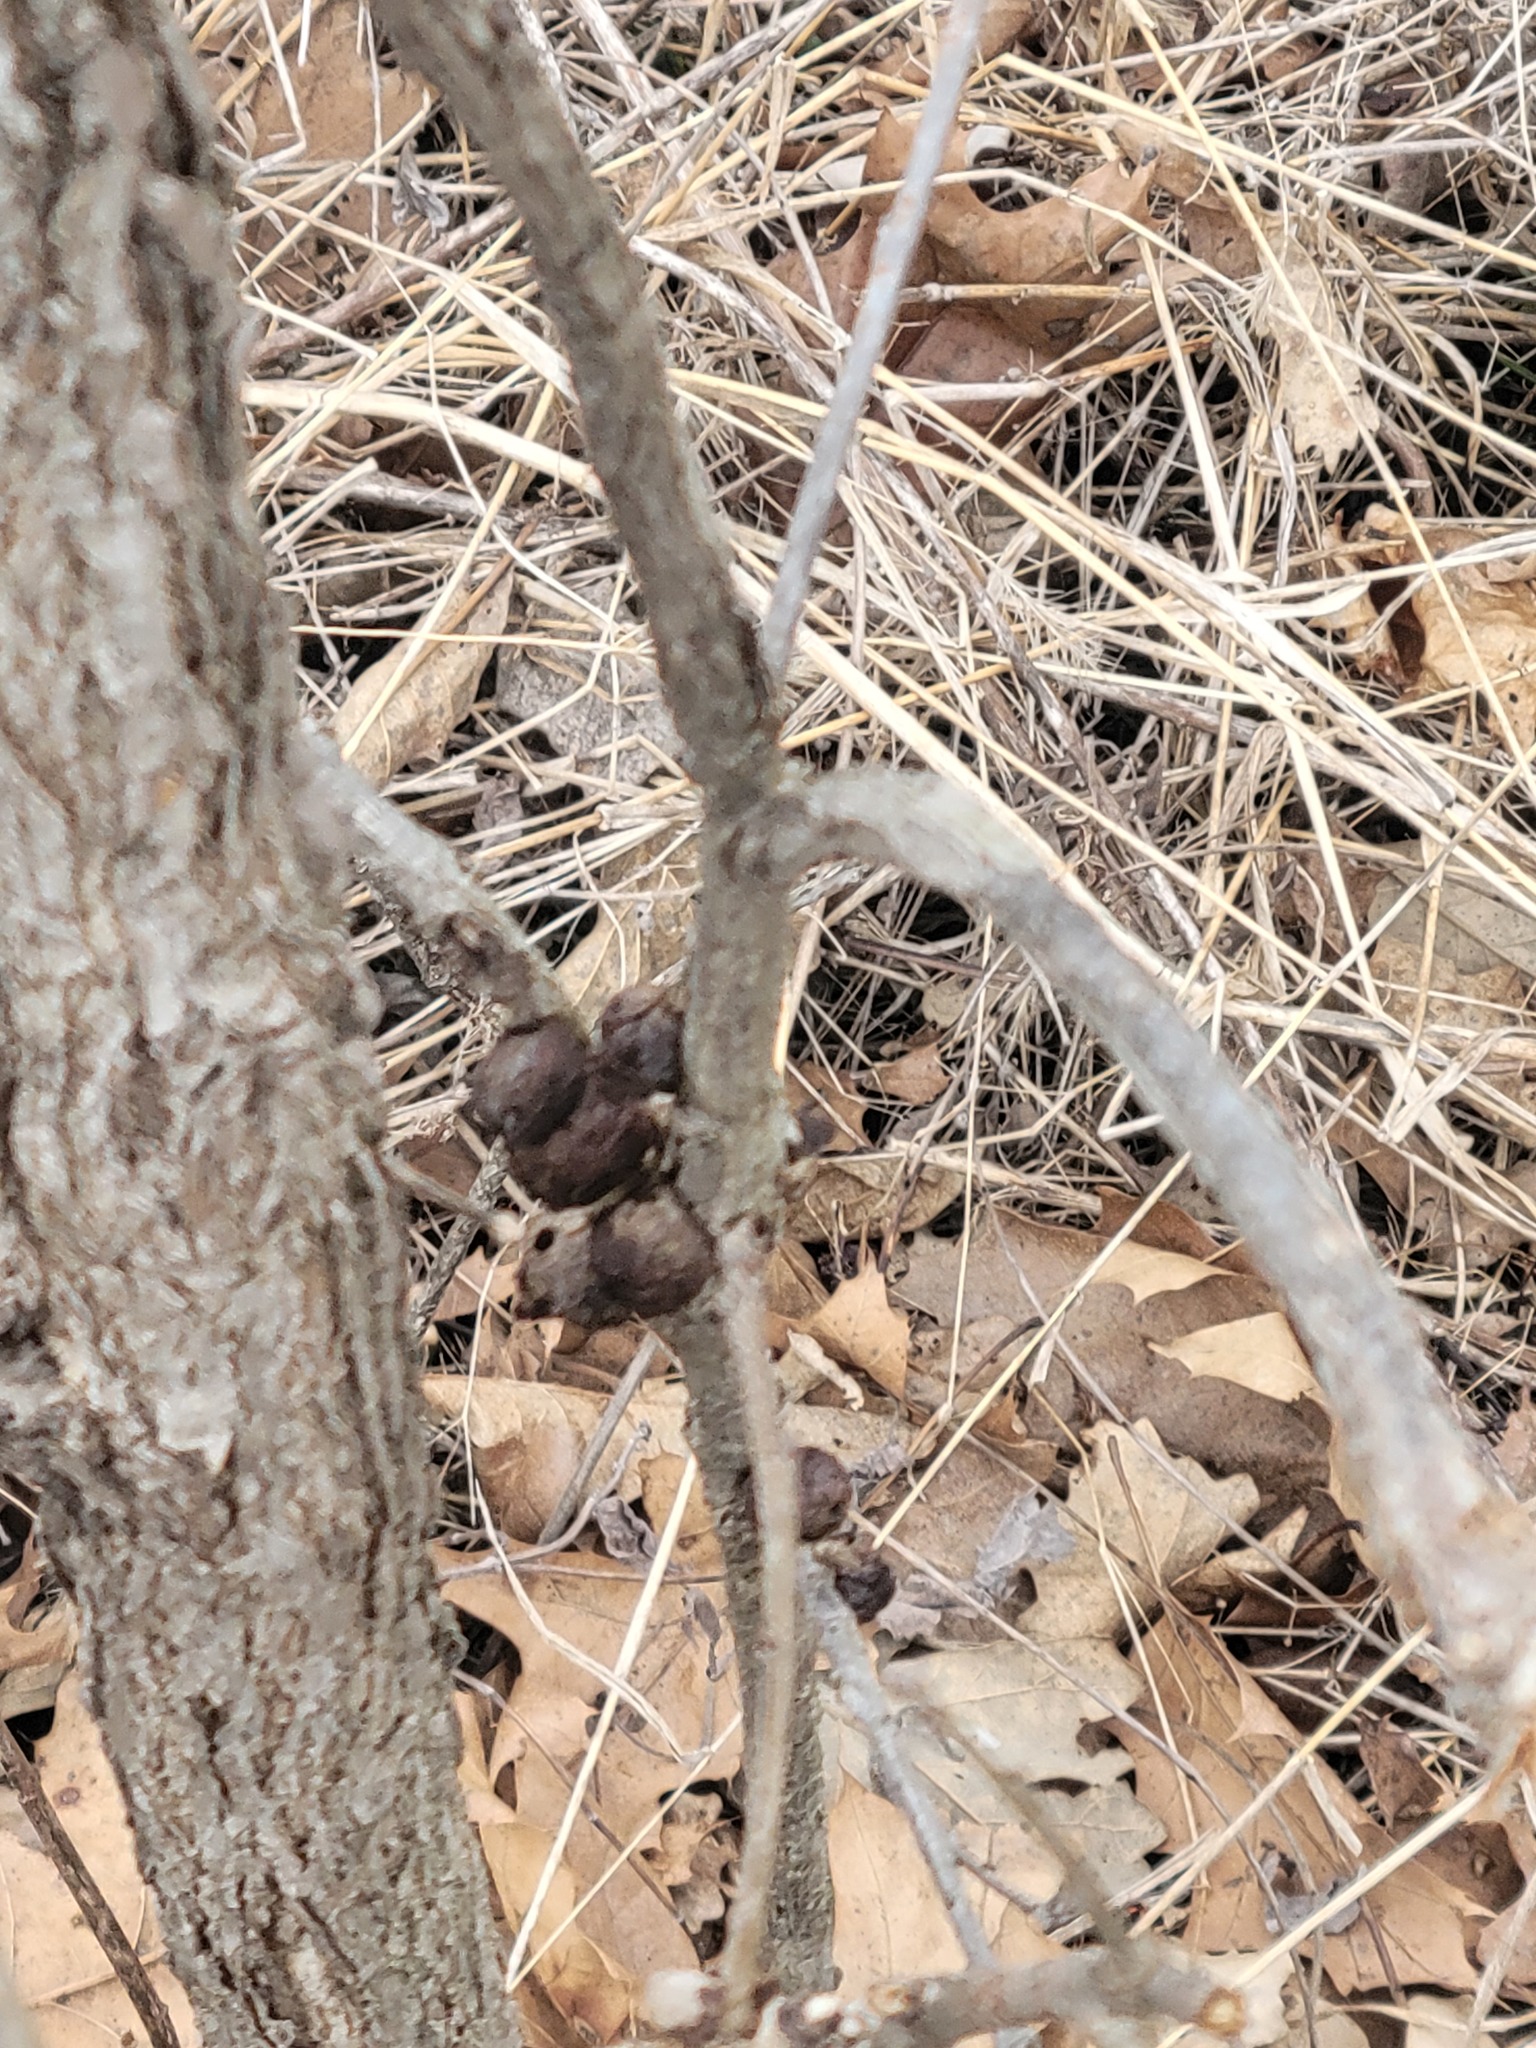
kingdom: Animalia
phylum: Arthropoda
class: Insecta
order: Hymenoptera
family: Cynipidae
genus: Disholcaspis
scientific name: Disholcaspis
